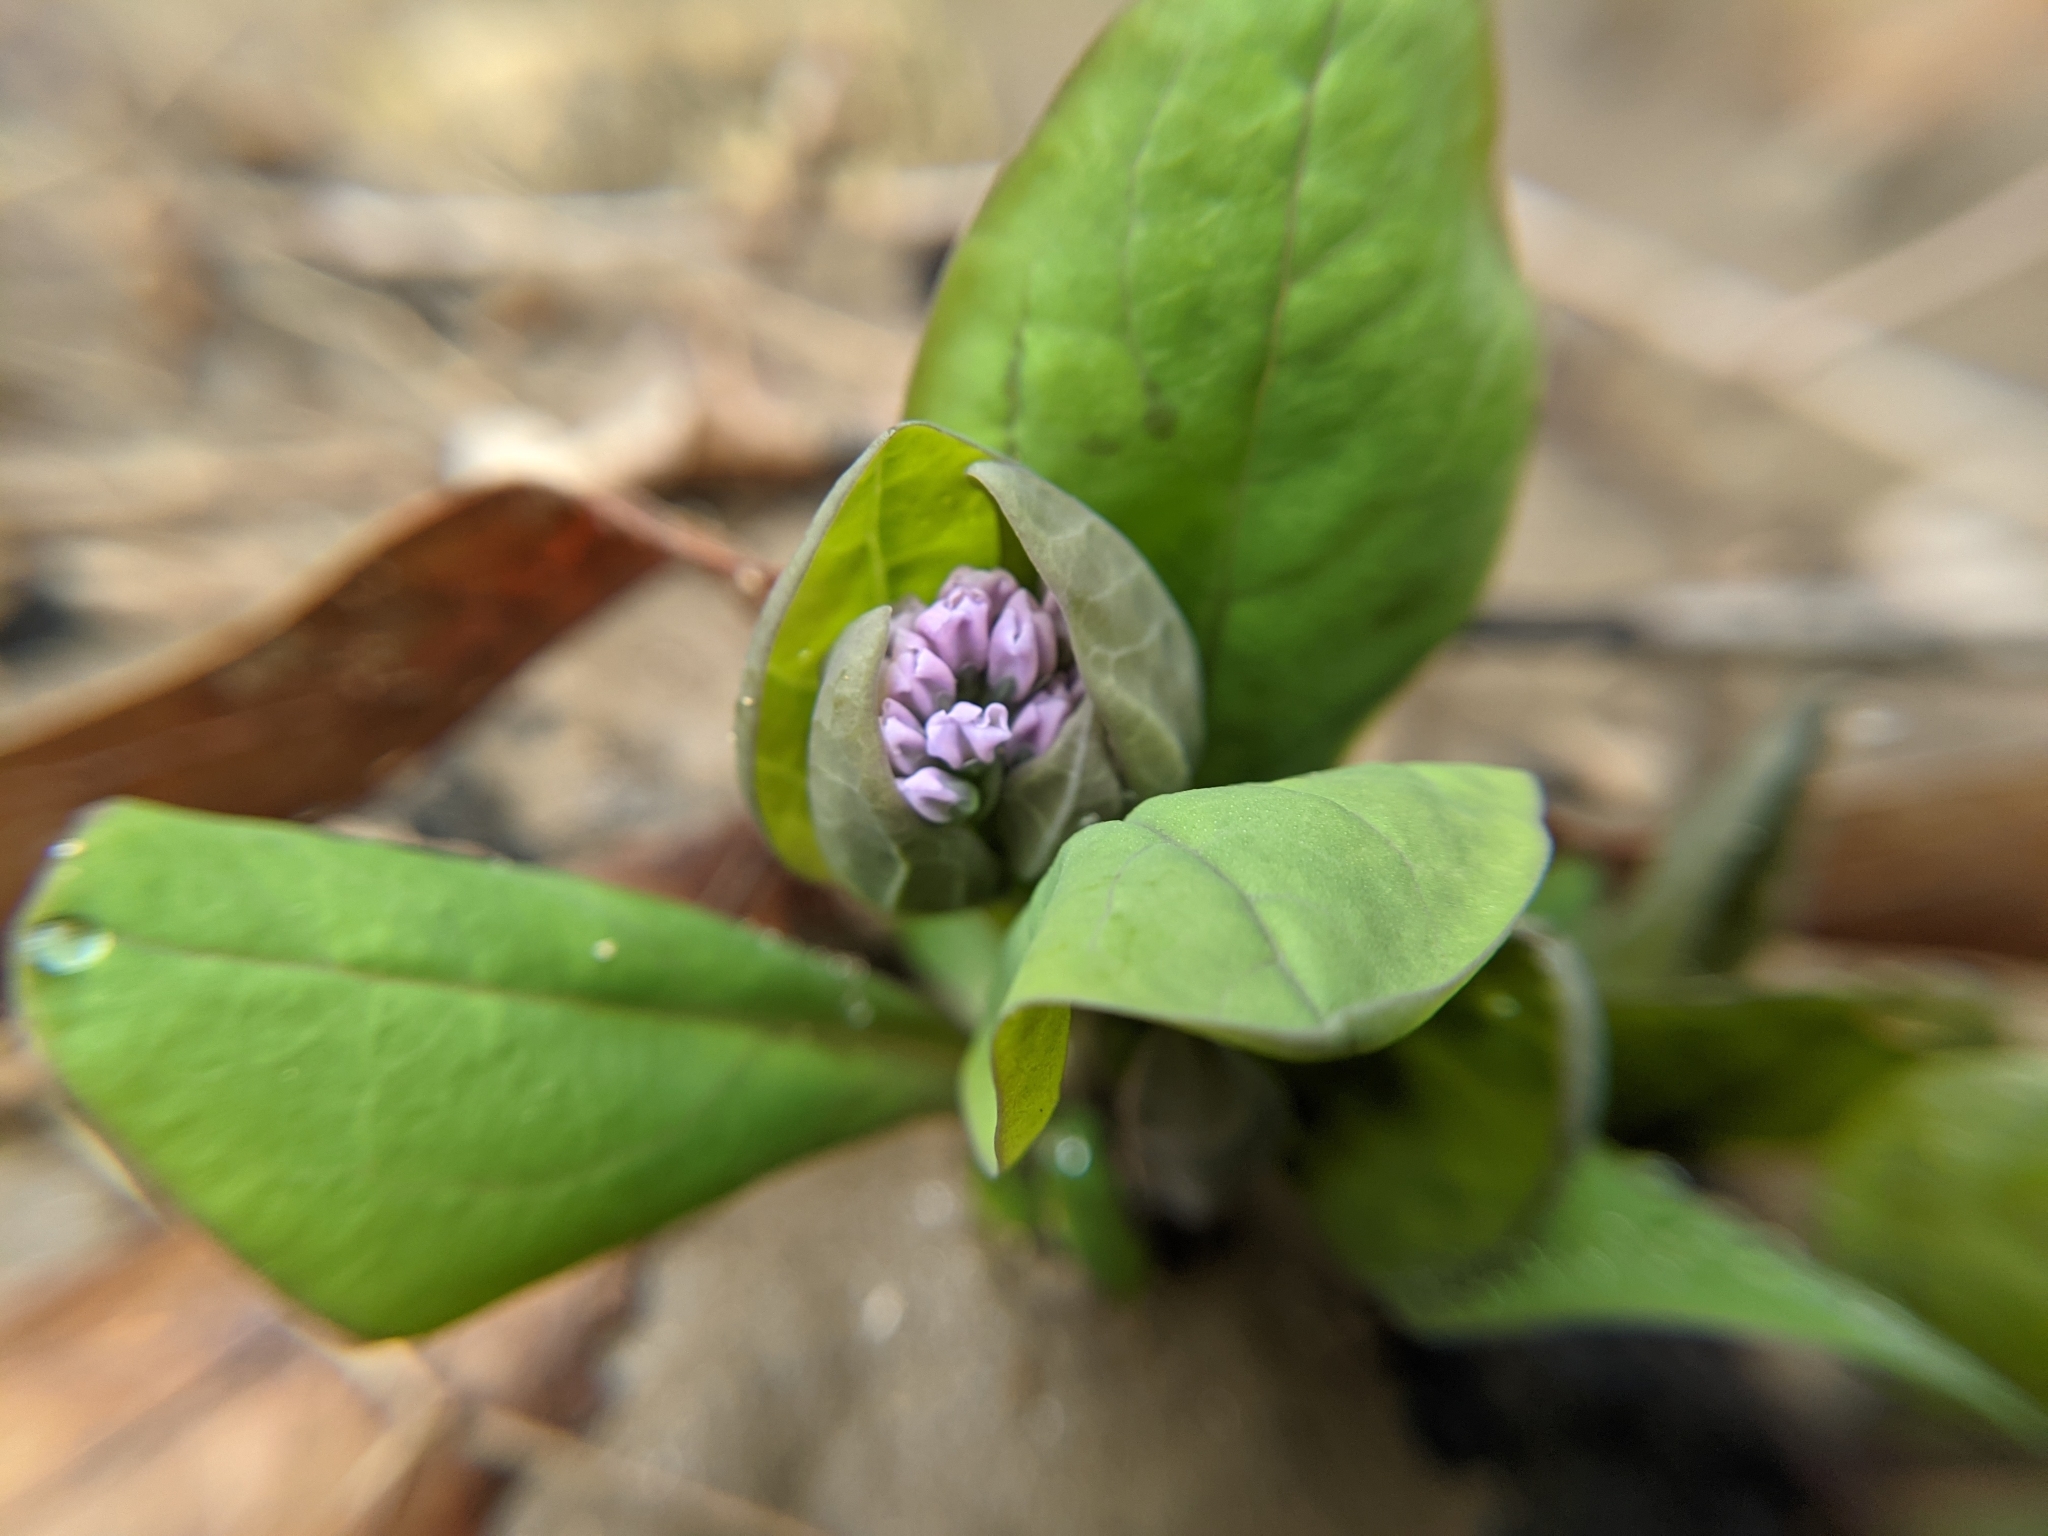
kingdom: Plantae
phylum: Tracheophyta
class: Magnoliopsida
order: Boraginales
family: Boraginaceae
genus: Mertensia
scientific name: Mertensia virginica
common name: Virginia bluebells
